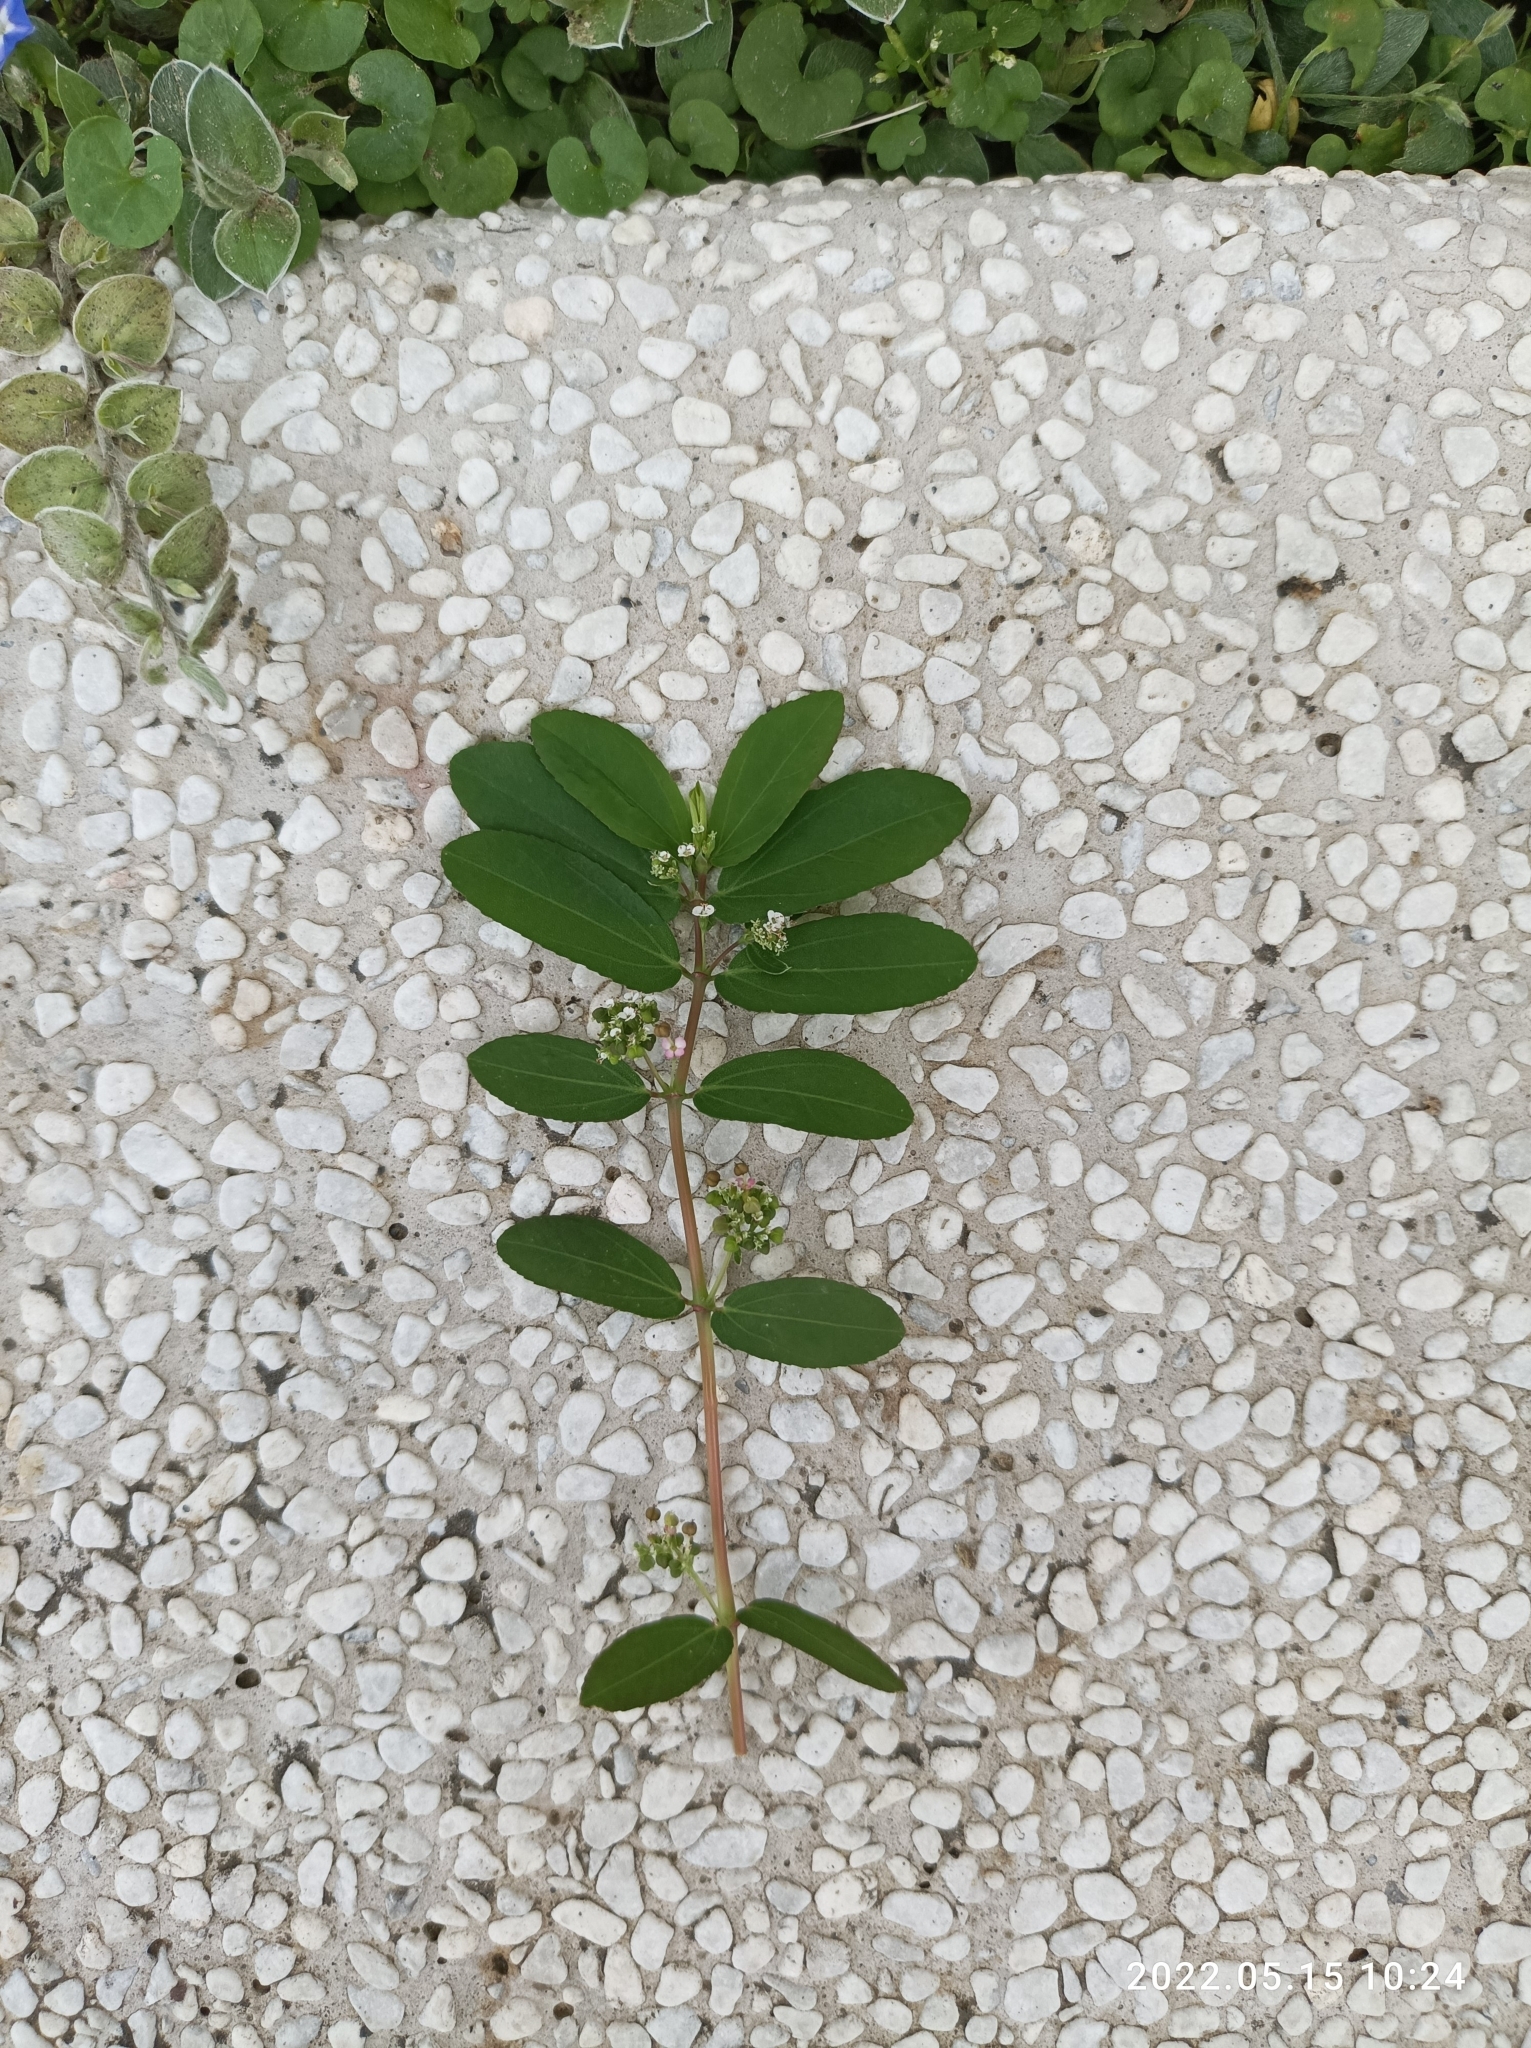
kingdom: Plantae
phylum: Tracheophyta
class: Magnoliopsida
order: Malpighiales
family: Euphorbiaceae
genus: Euphorbia
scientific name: Euphorbia hypericifolia
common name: Graceful sandmat
